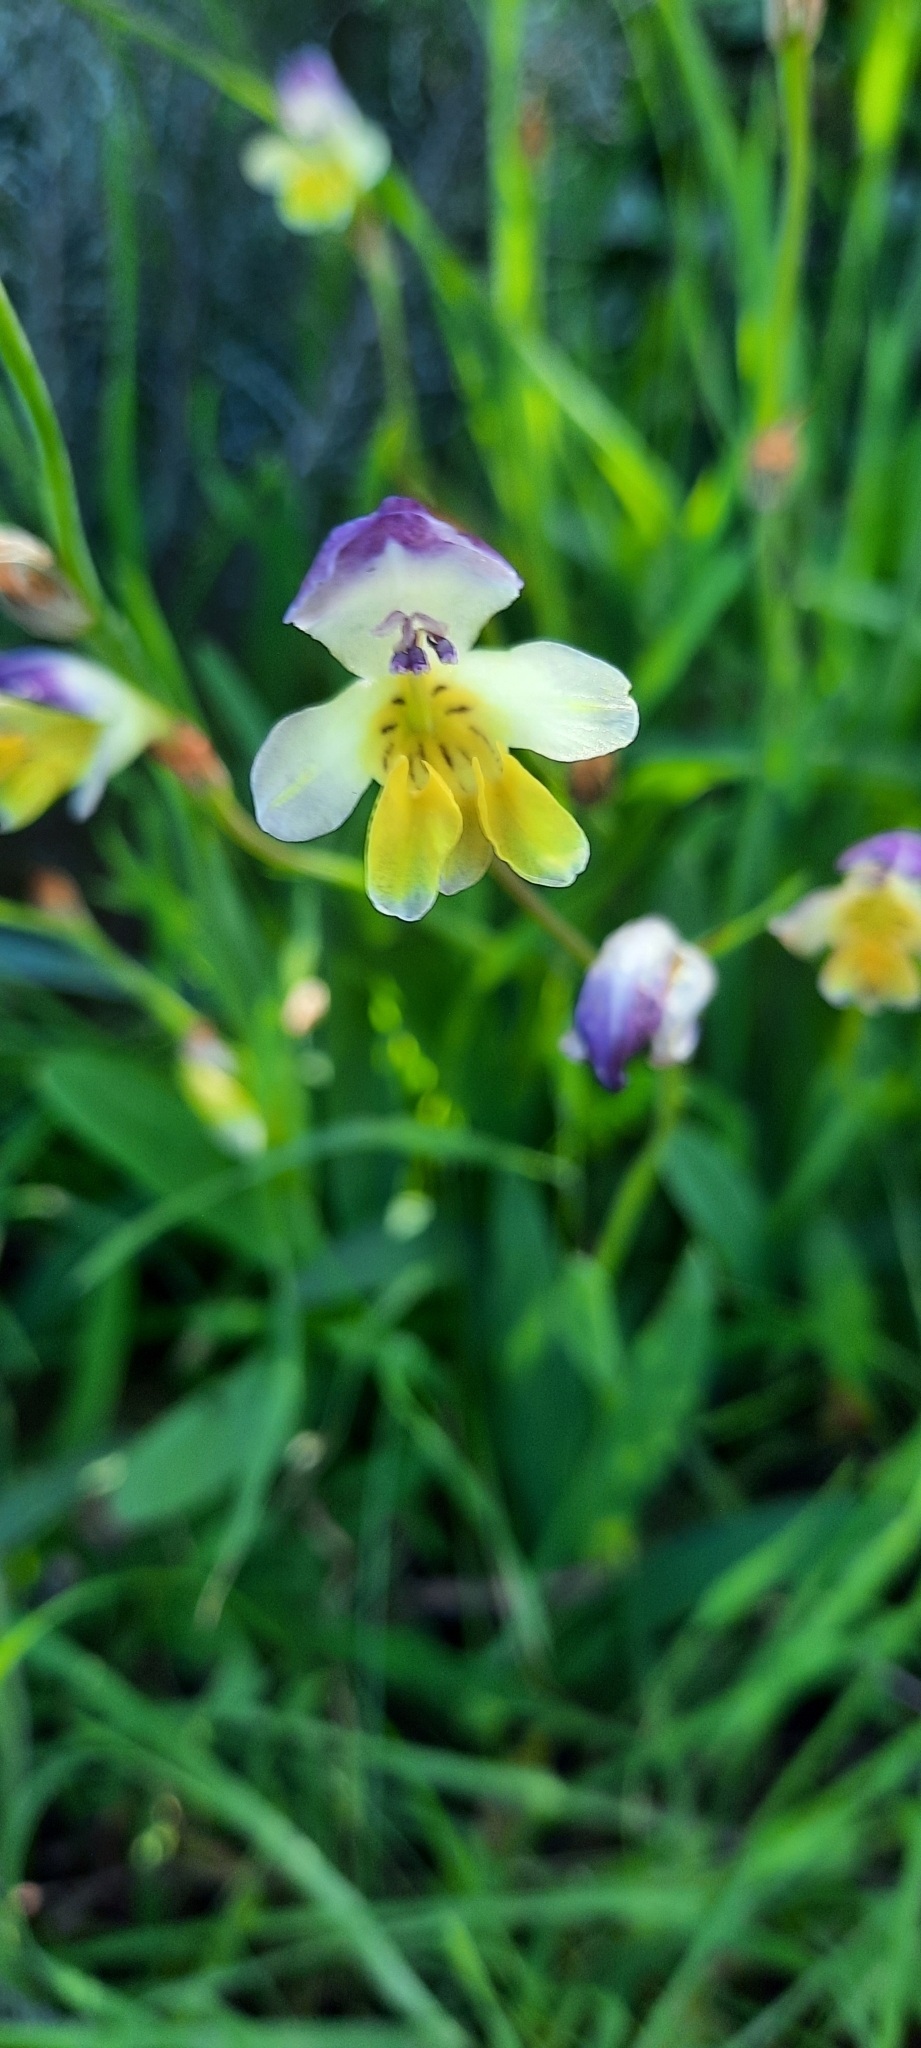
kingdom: Plantae
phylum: Tracheophyta
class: Liliopsida
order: Asparagales
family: Iridaceae
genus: Sparaxis
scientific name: Sparaxis villosa
